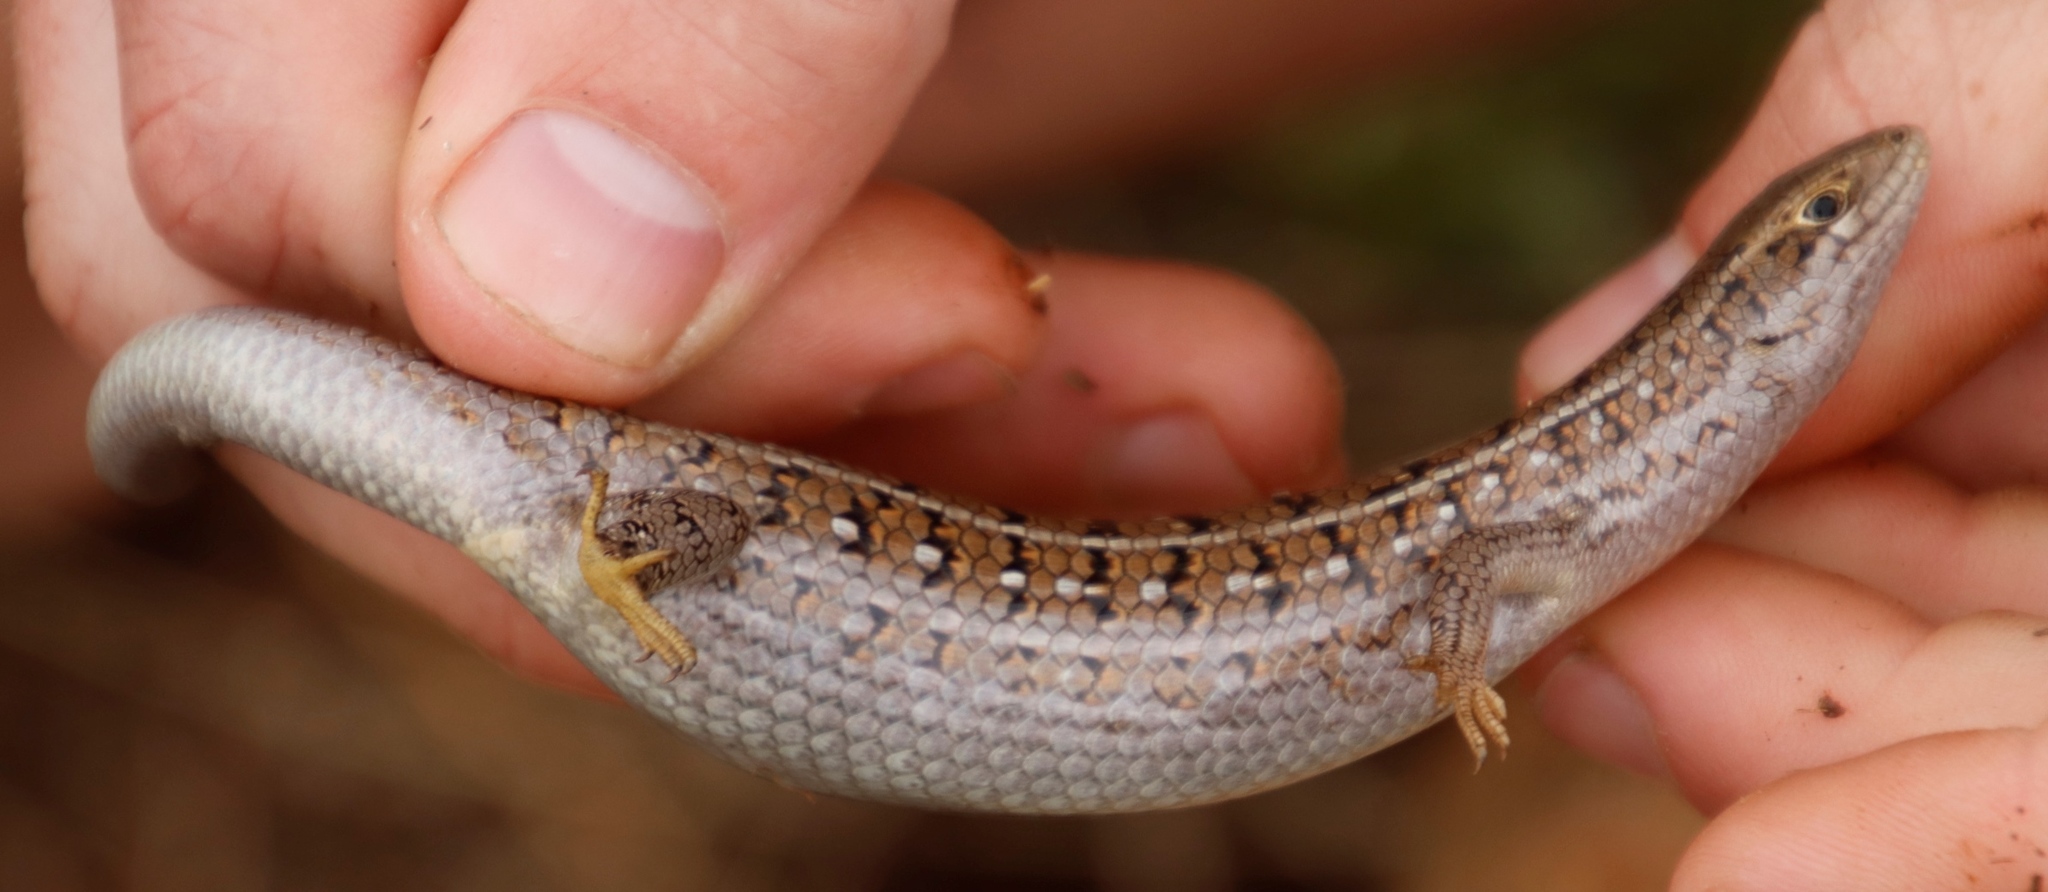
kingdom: Animalia
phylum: Chordata
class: Squamata
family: Scincidae
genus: Trachylepis
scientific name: Trachylepis capensis
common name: Cape skink
